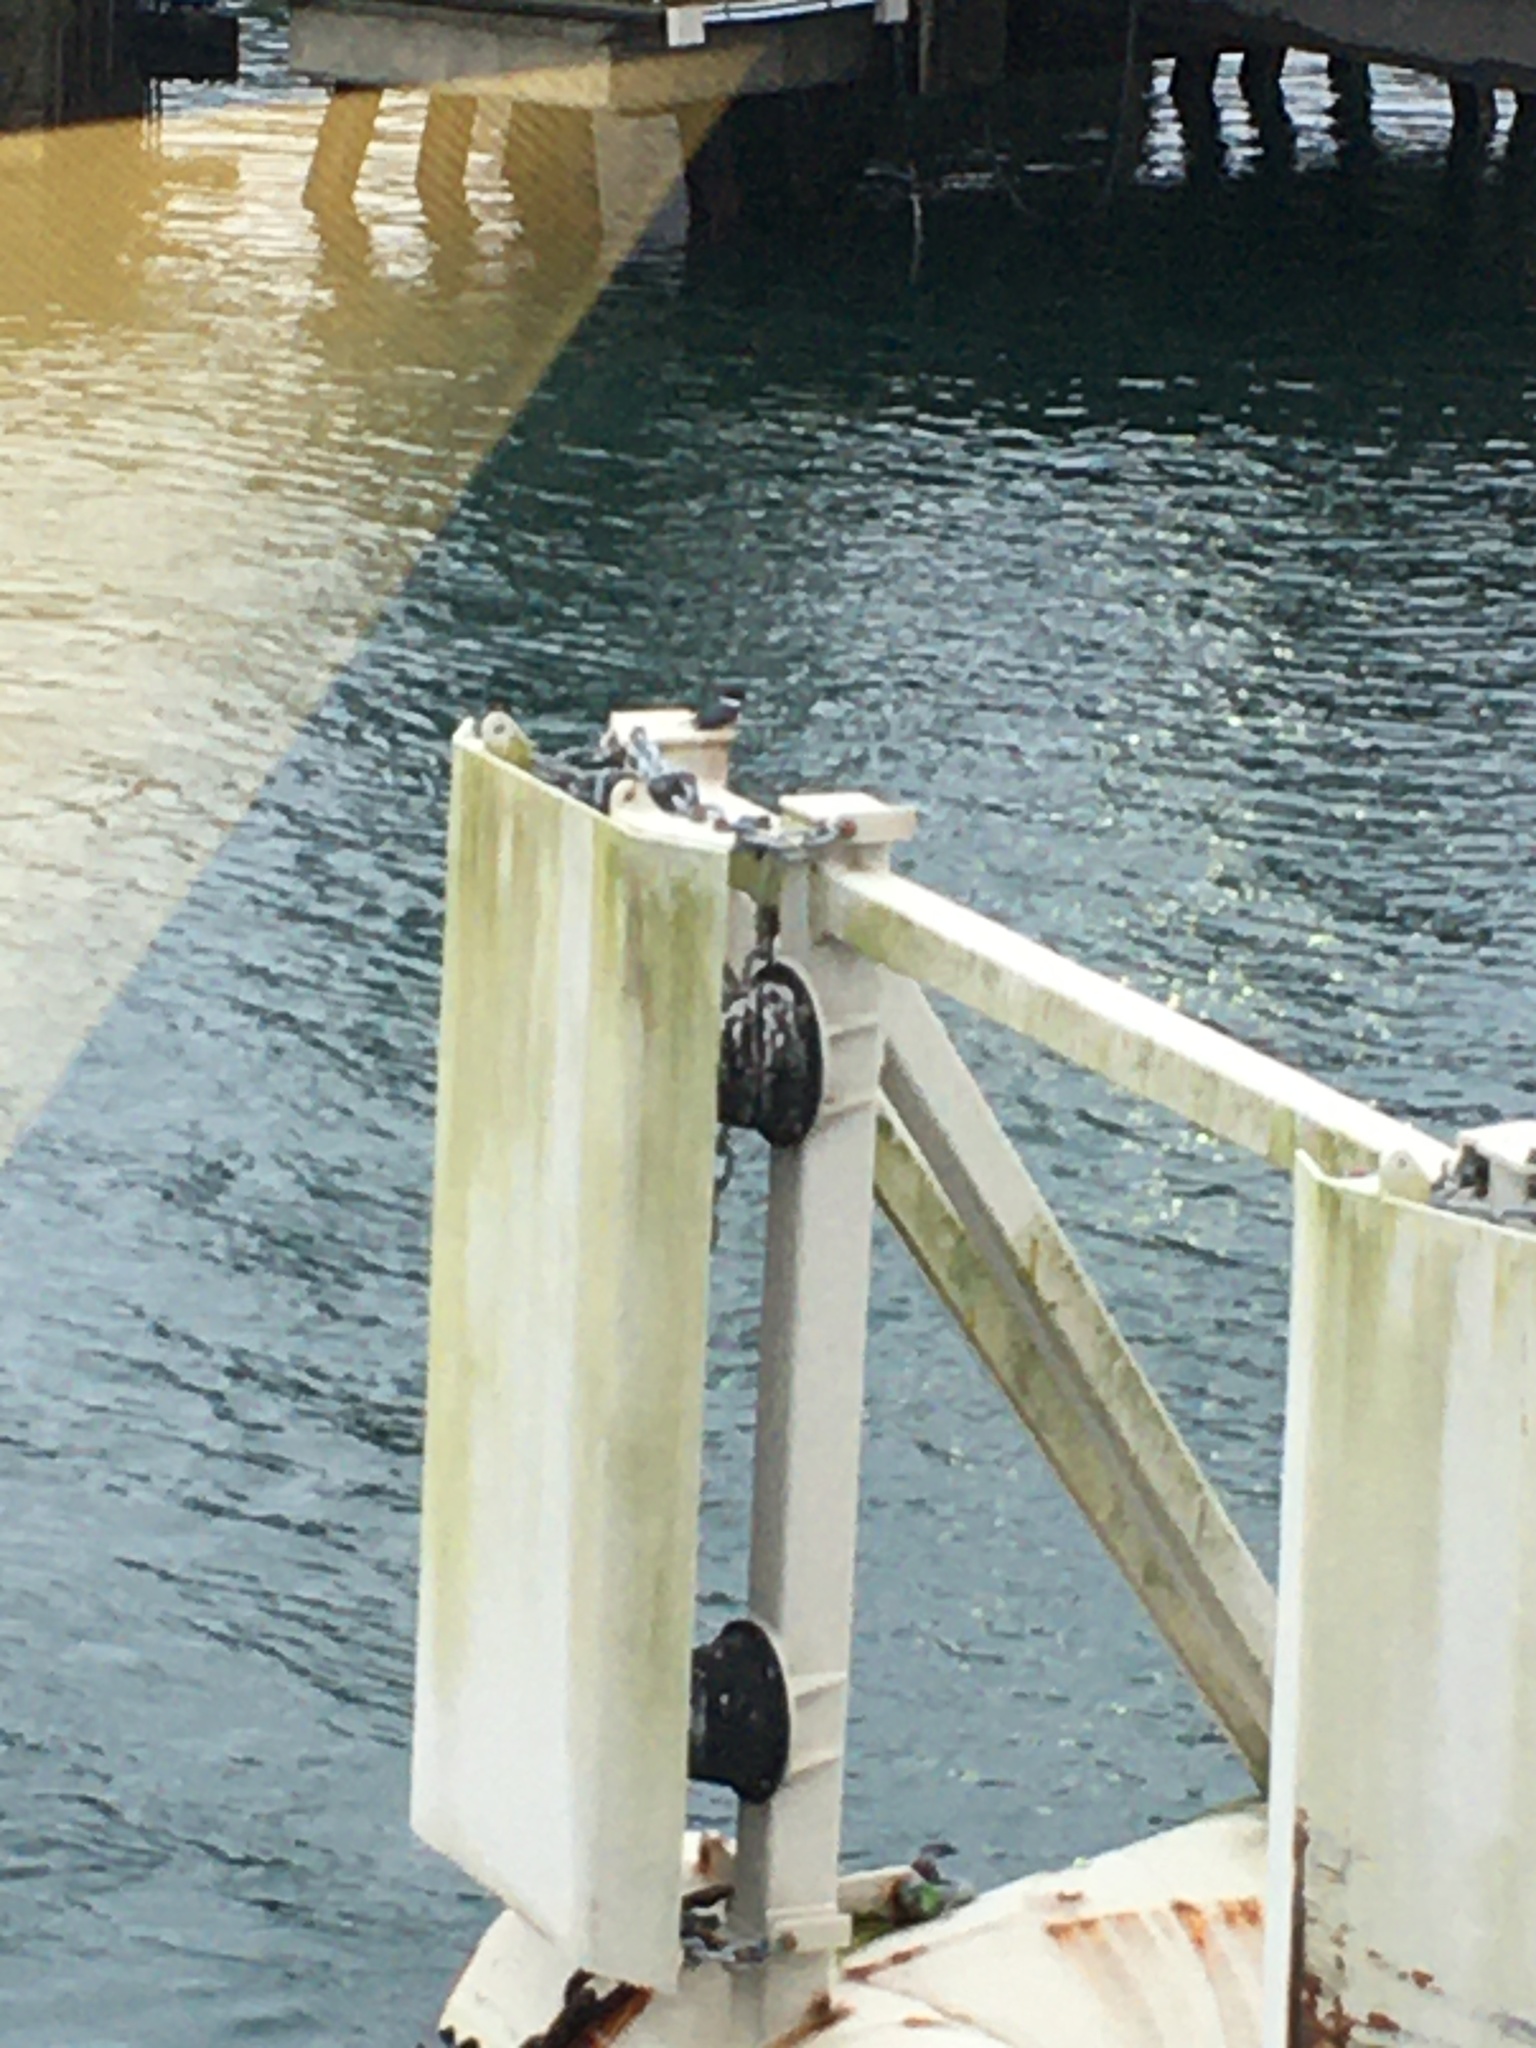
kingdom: Animalia
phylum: Chordata
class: Aves
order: Coraciiformes
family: Alcedinidae
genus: Megaceryle
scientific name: Megaceryle alcyon
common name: Belted kingfisher
